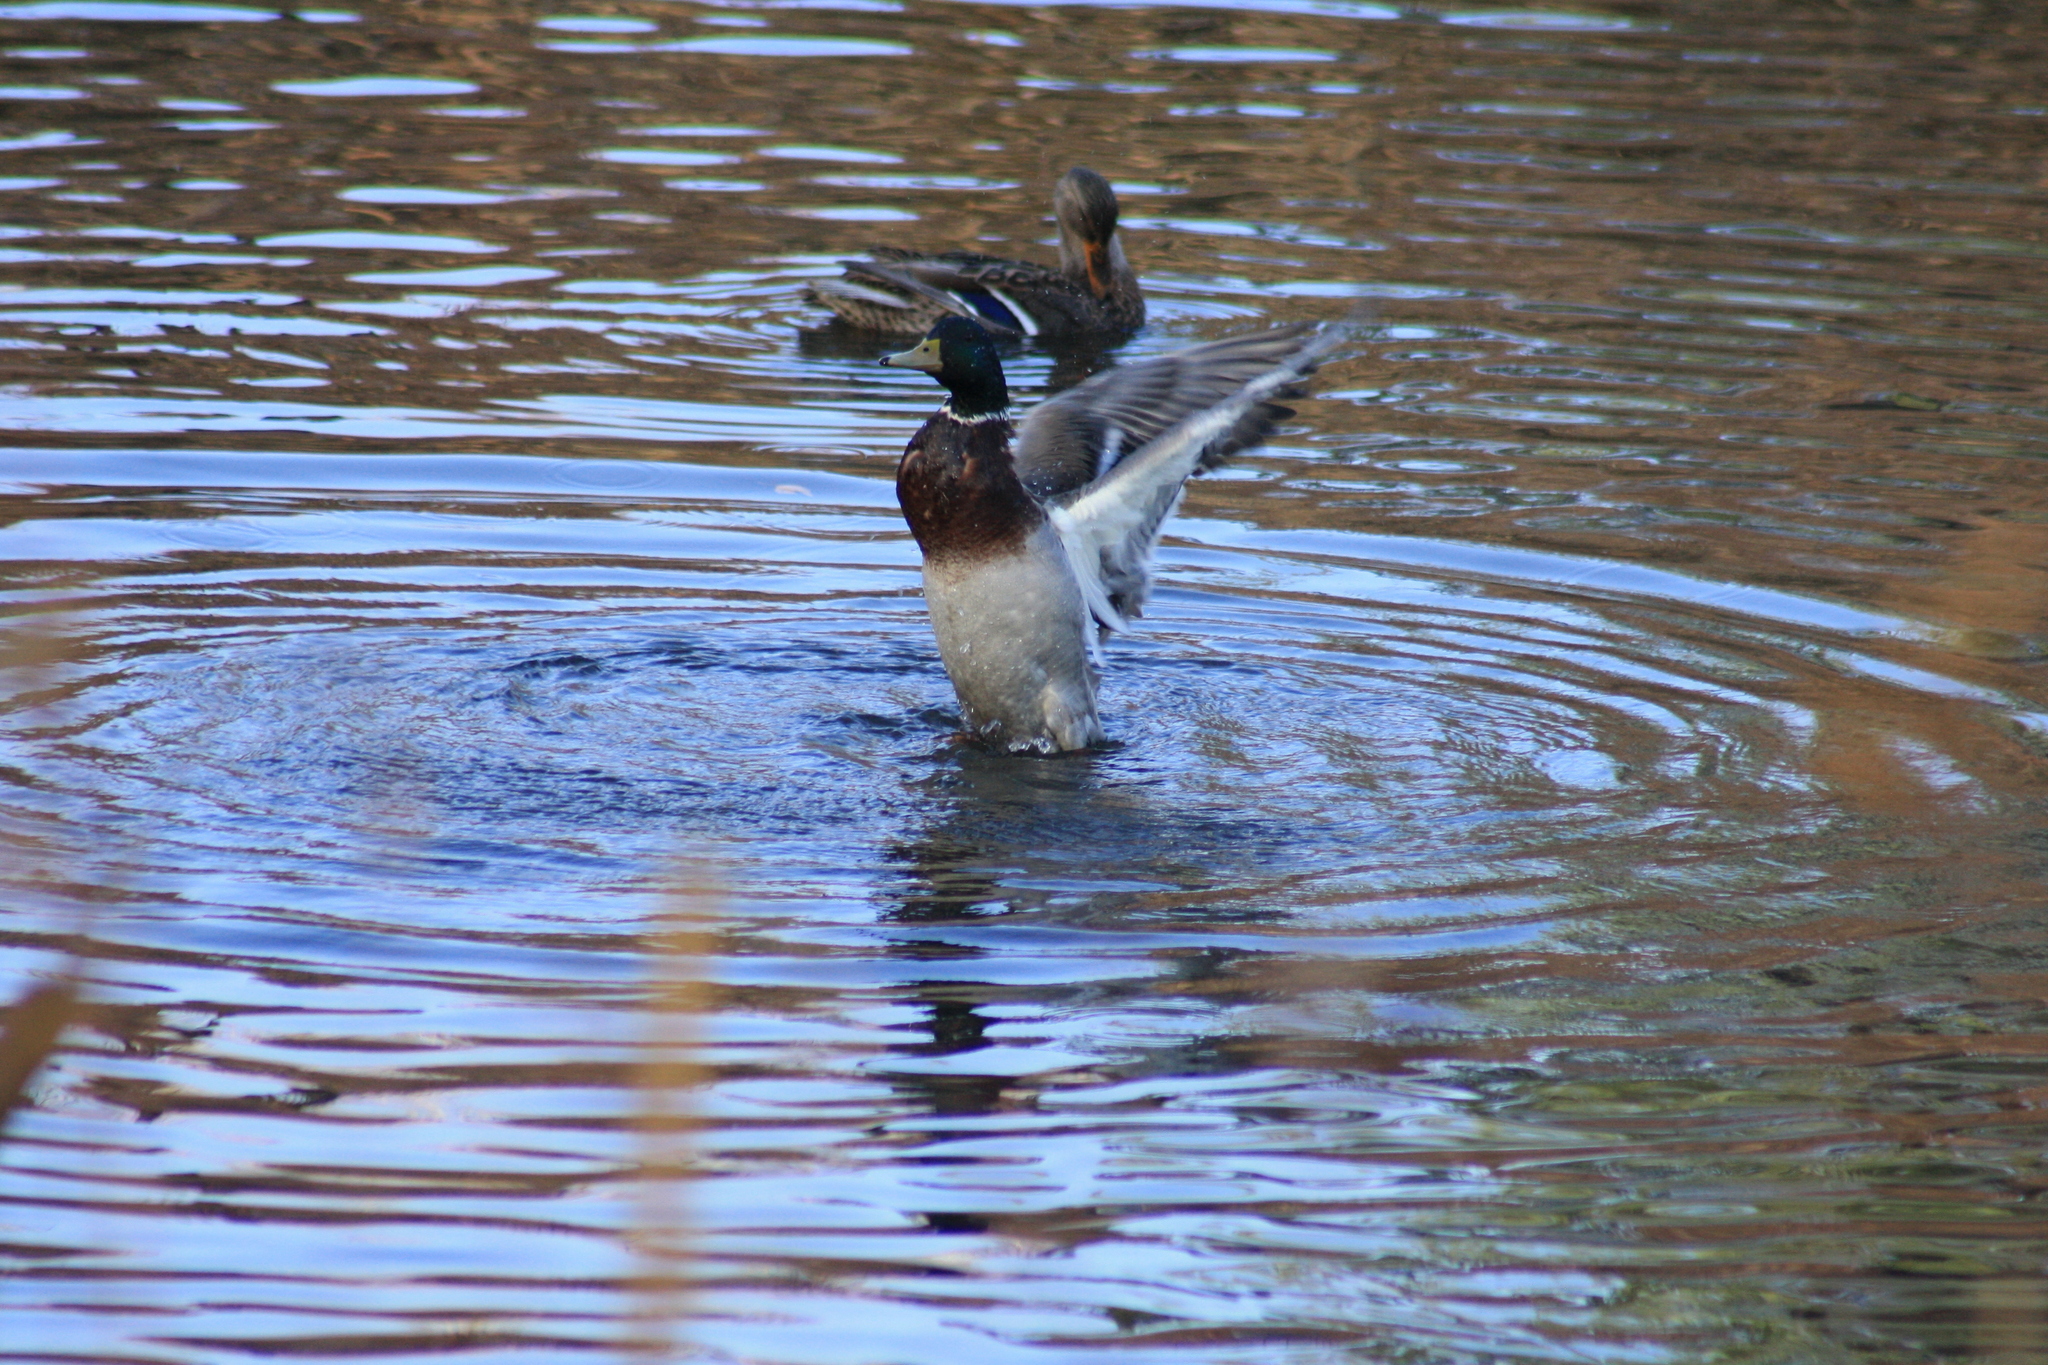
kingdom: Animalia
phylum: Chordata
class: Aves
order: Anseriformes
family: Anatidae
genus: Anas
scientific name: Anas platyrhynchos
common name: Mallard
